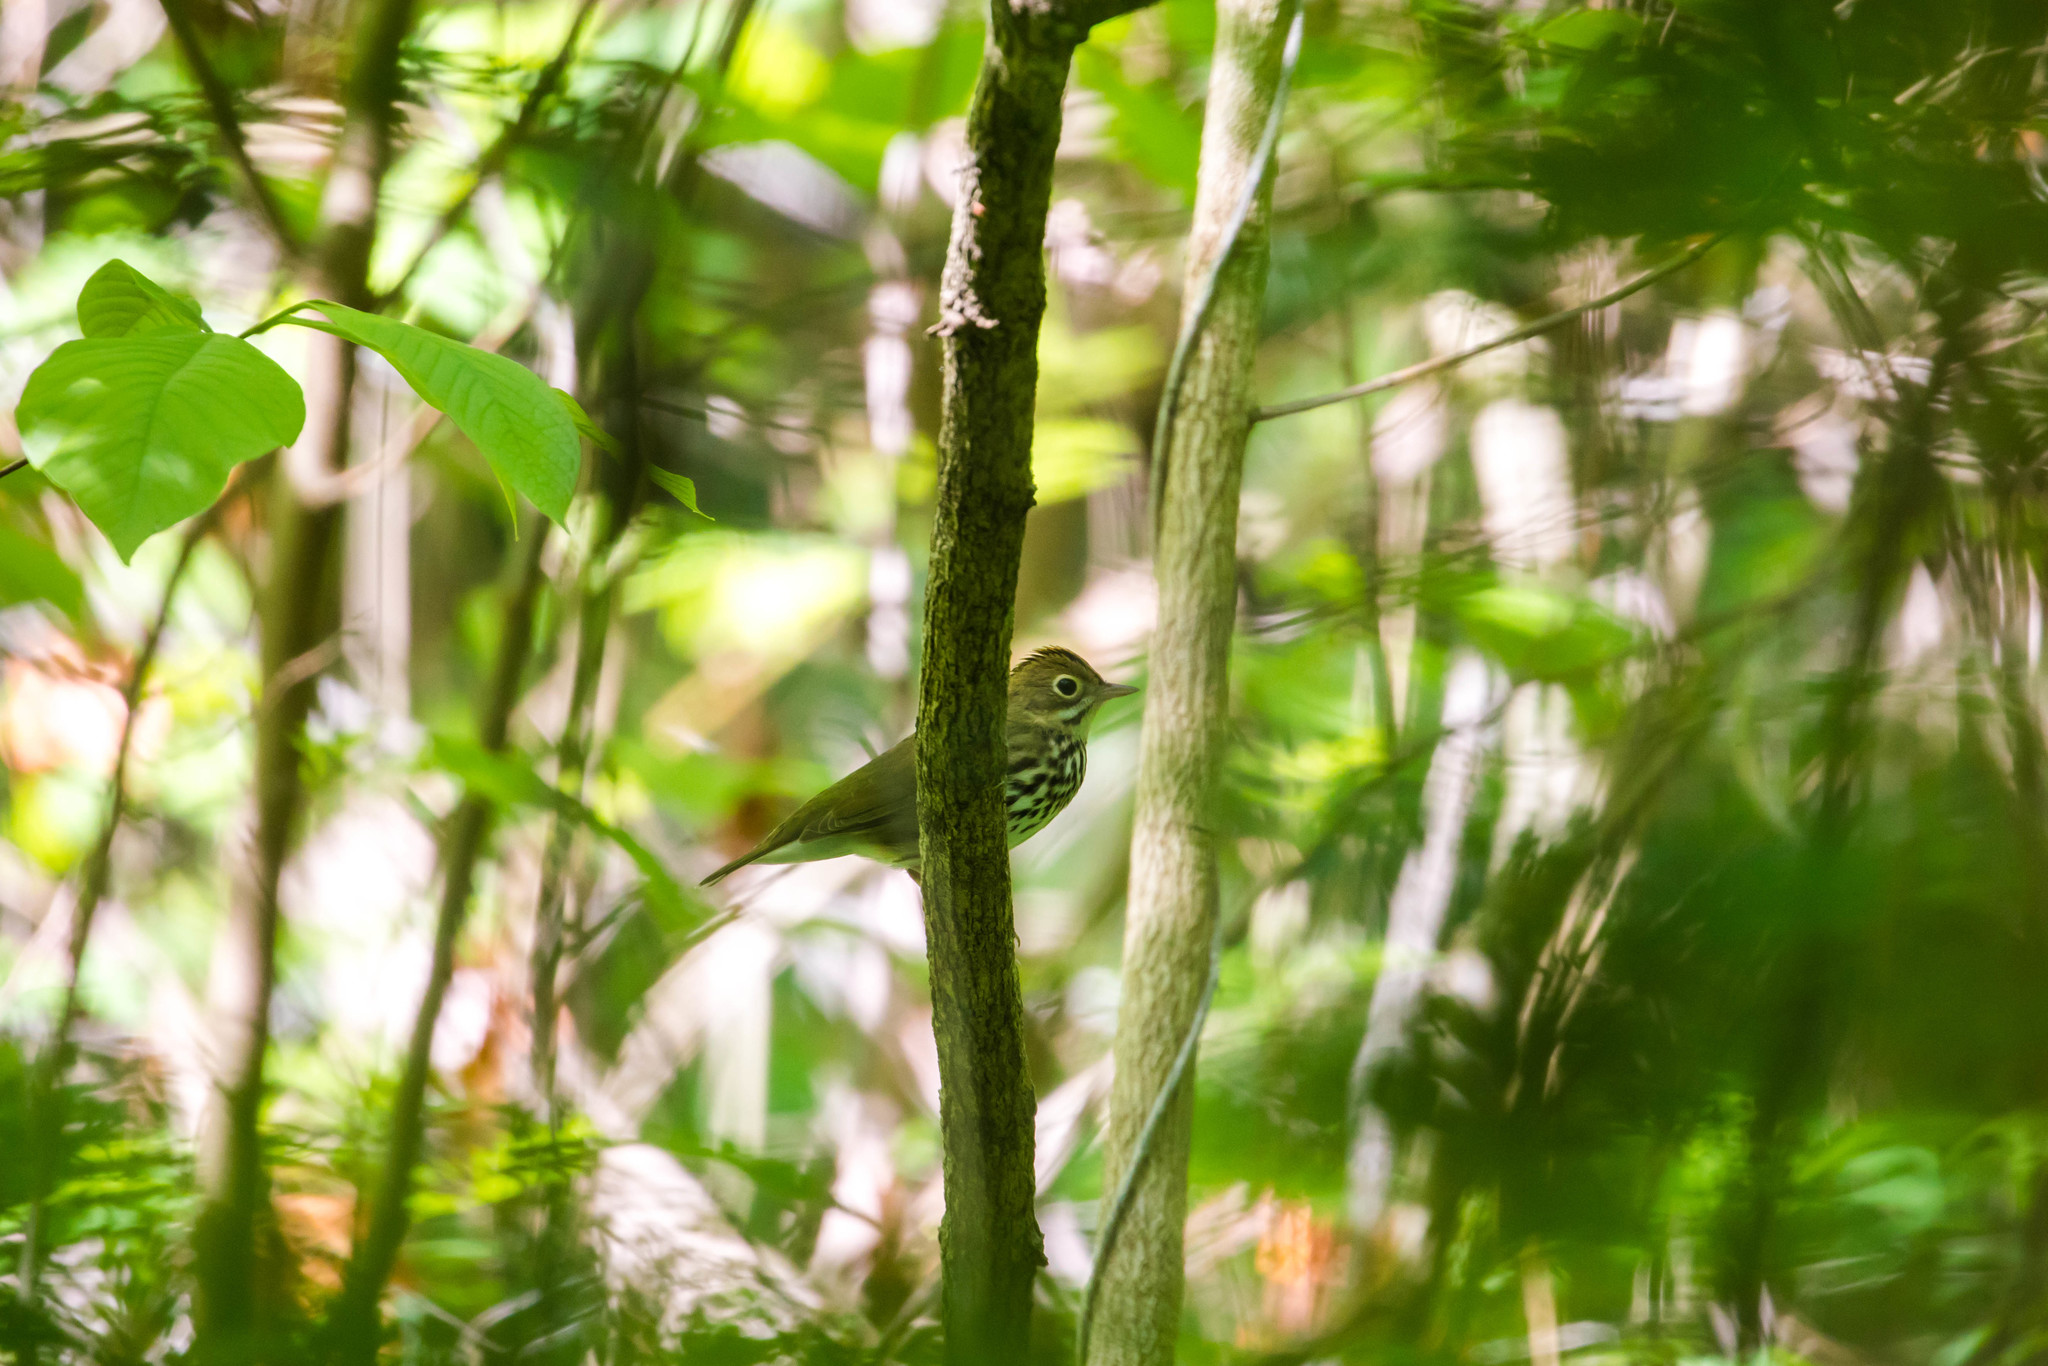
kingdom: Animalia
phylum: Chordata
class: Aves
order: Passeriformes
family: Parulidae
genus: Seiurus
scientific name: Seiurus aurocapilla
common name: Ovenbird
